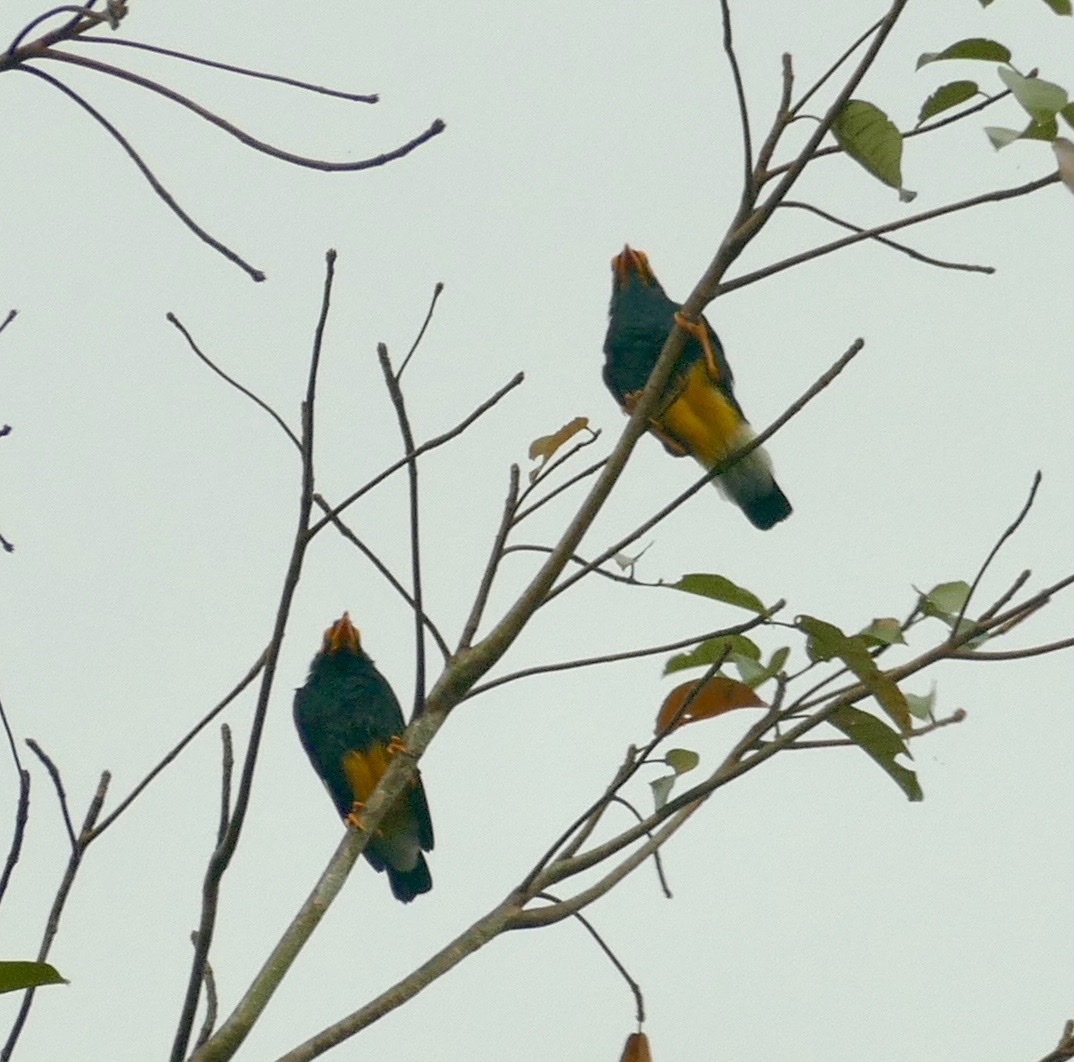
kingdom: Animalia
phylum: Chordata
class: Aves
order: Passeriformes
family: Sturnidae
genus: Mino
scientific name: Mino dumontii
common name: Yellow-faced myna
